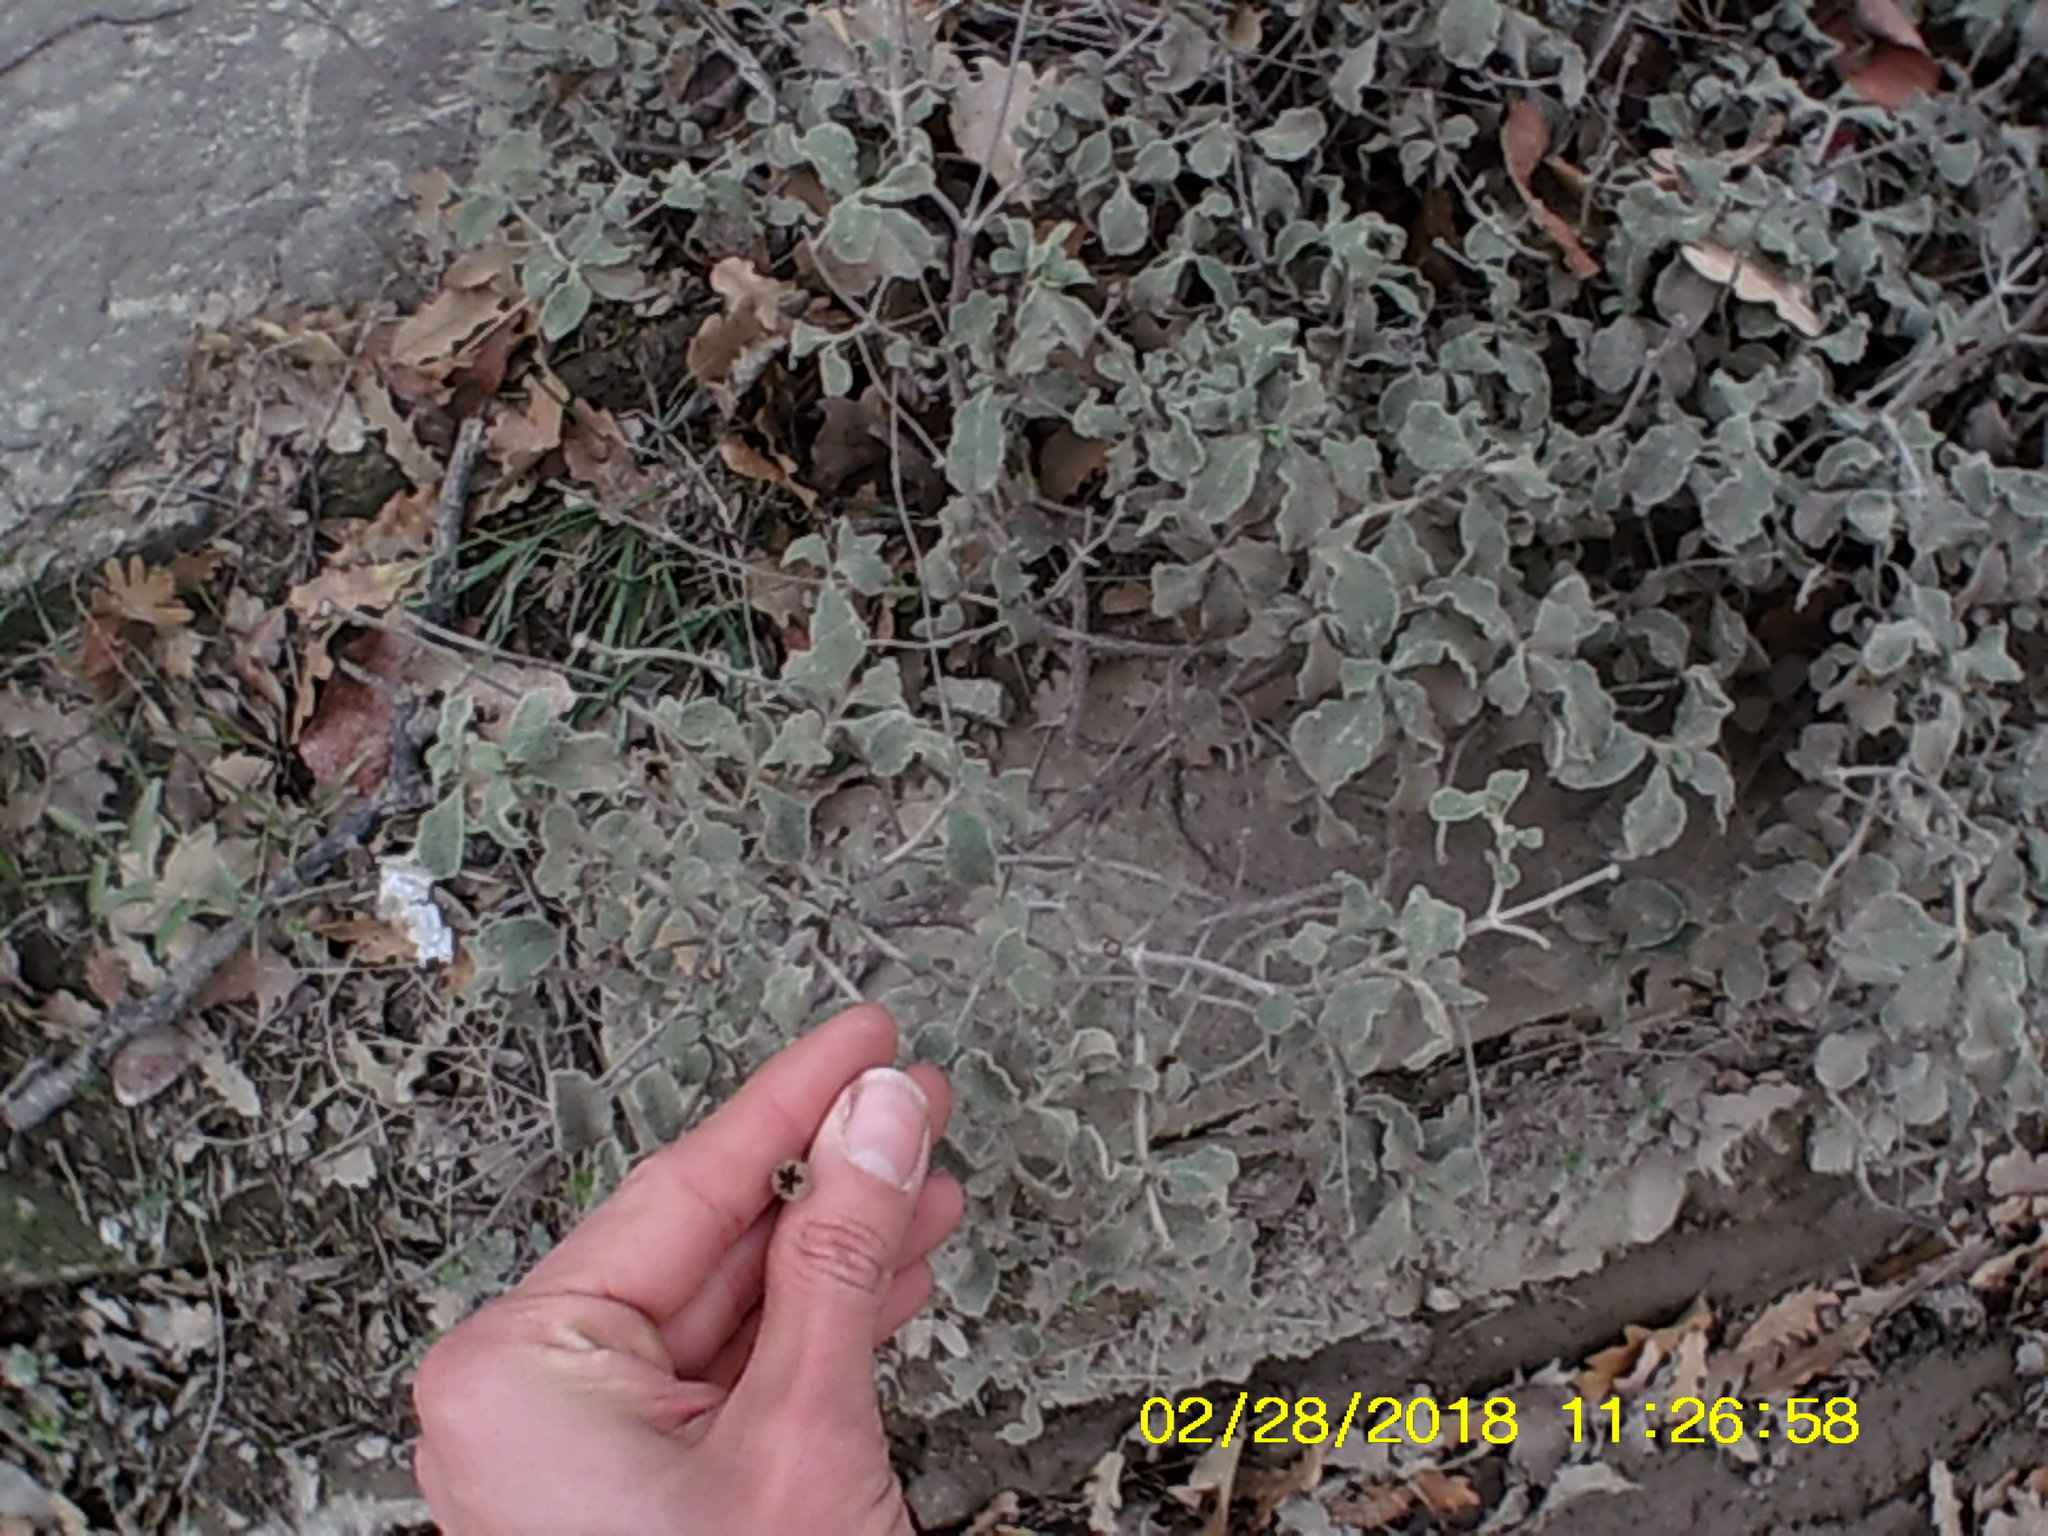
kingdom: Plantae
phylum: Tracheophyta
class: Magnoliopsida
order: Malvales
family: Cistaceae
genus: Cistus
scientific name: Cistus tauricus
